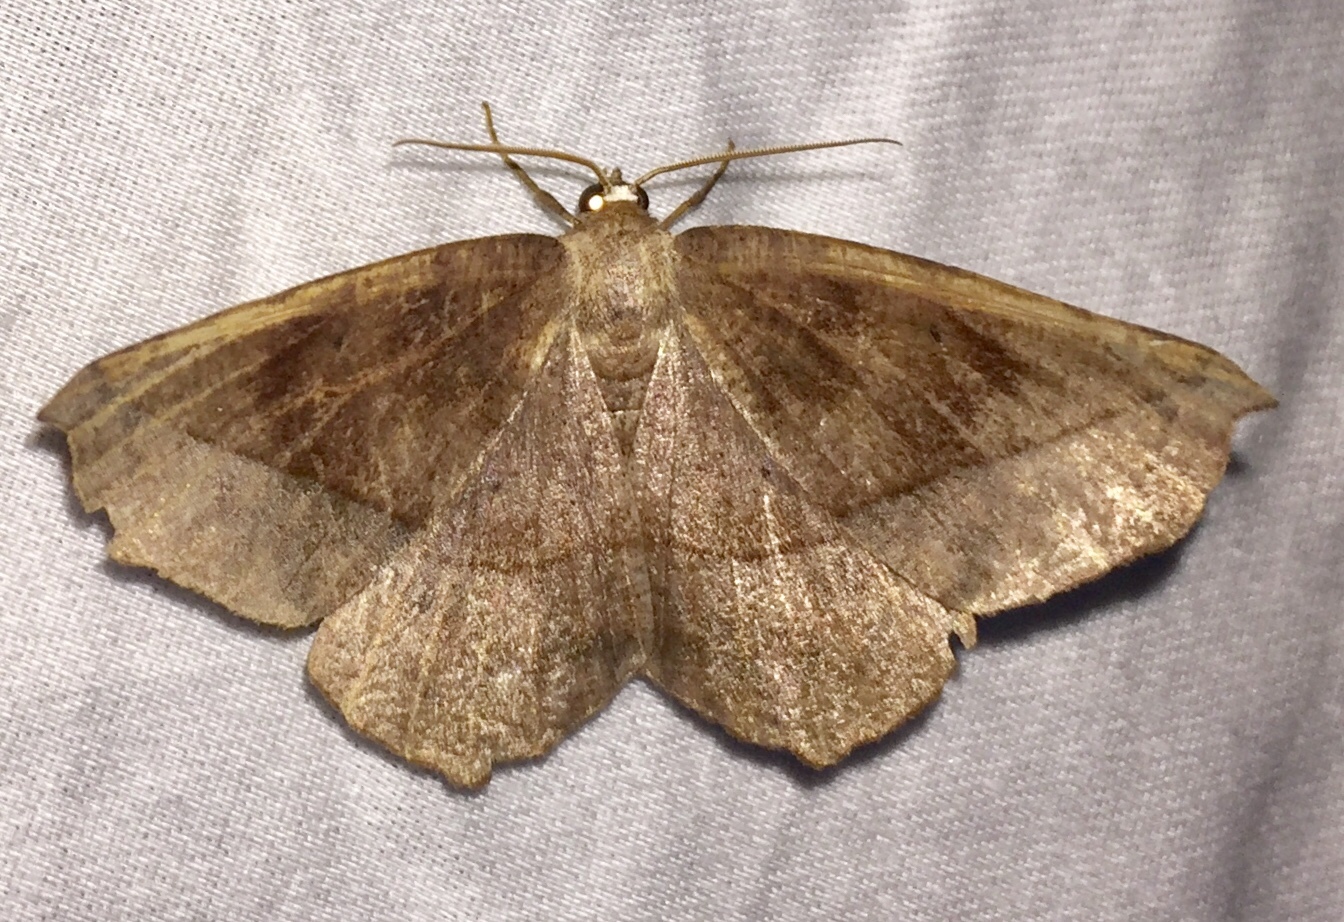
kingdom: Animalia
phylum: Arthropoda
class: Insecta
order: Lepidoptera
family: Geometridae
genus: Eutrapela
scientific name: Eutrapela clemataria
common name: Curved-toothed geometer
